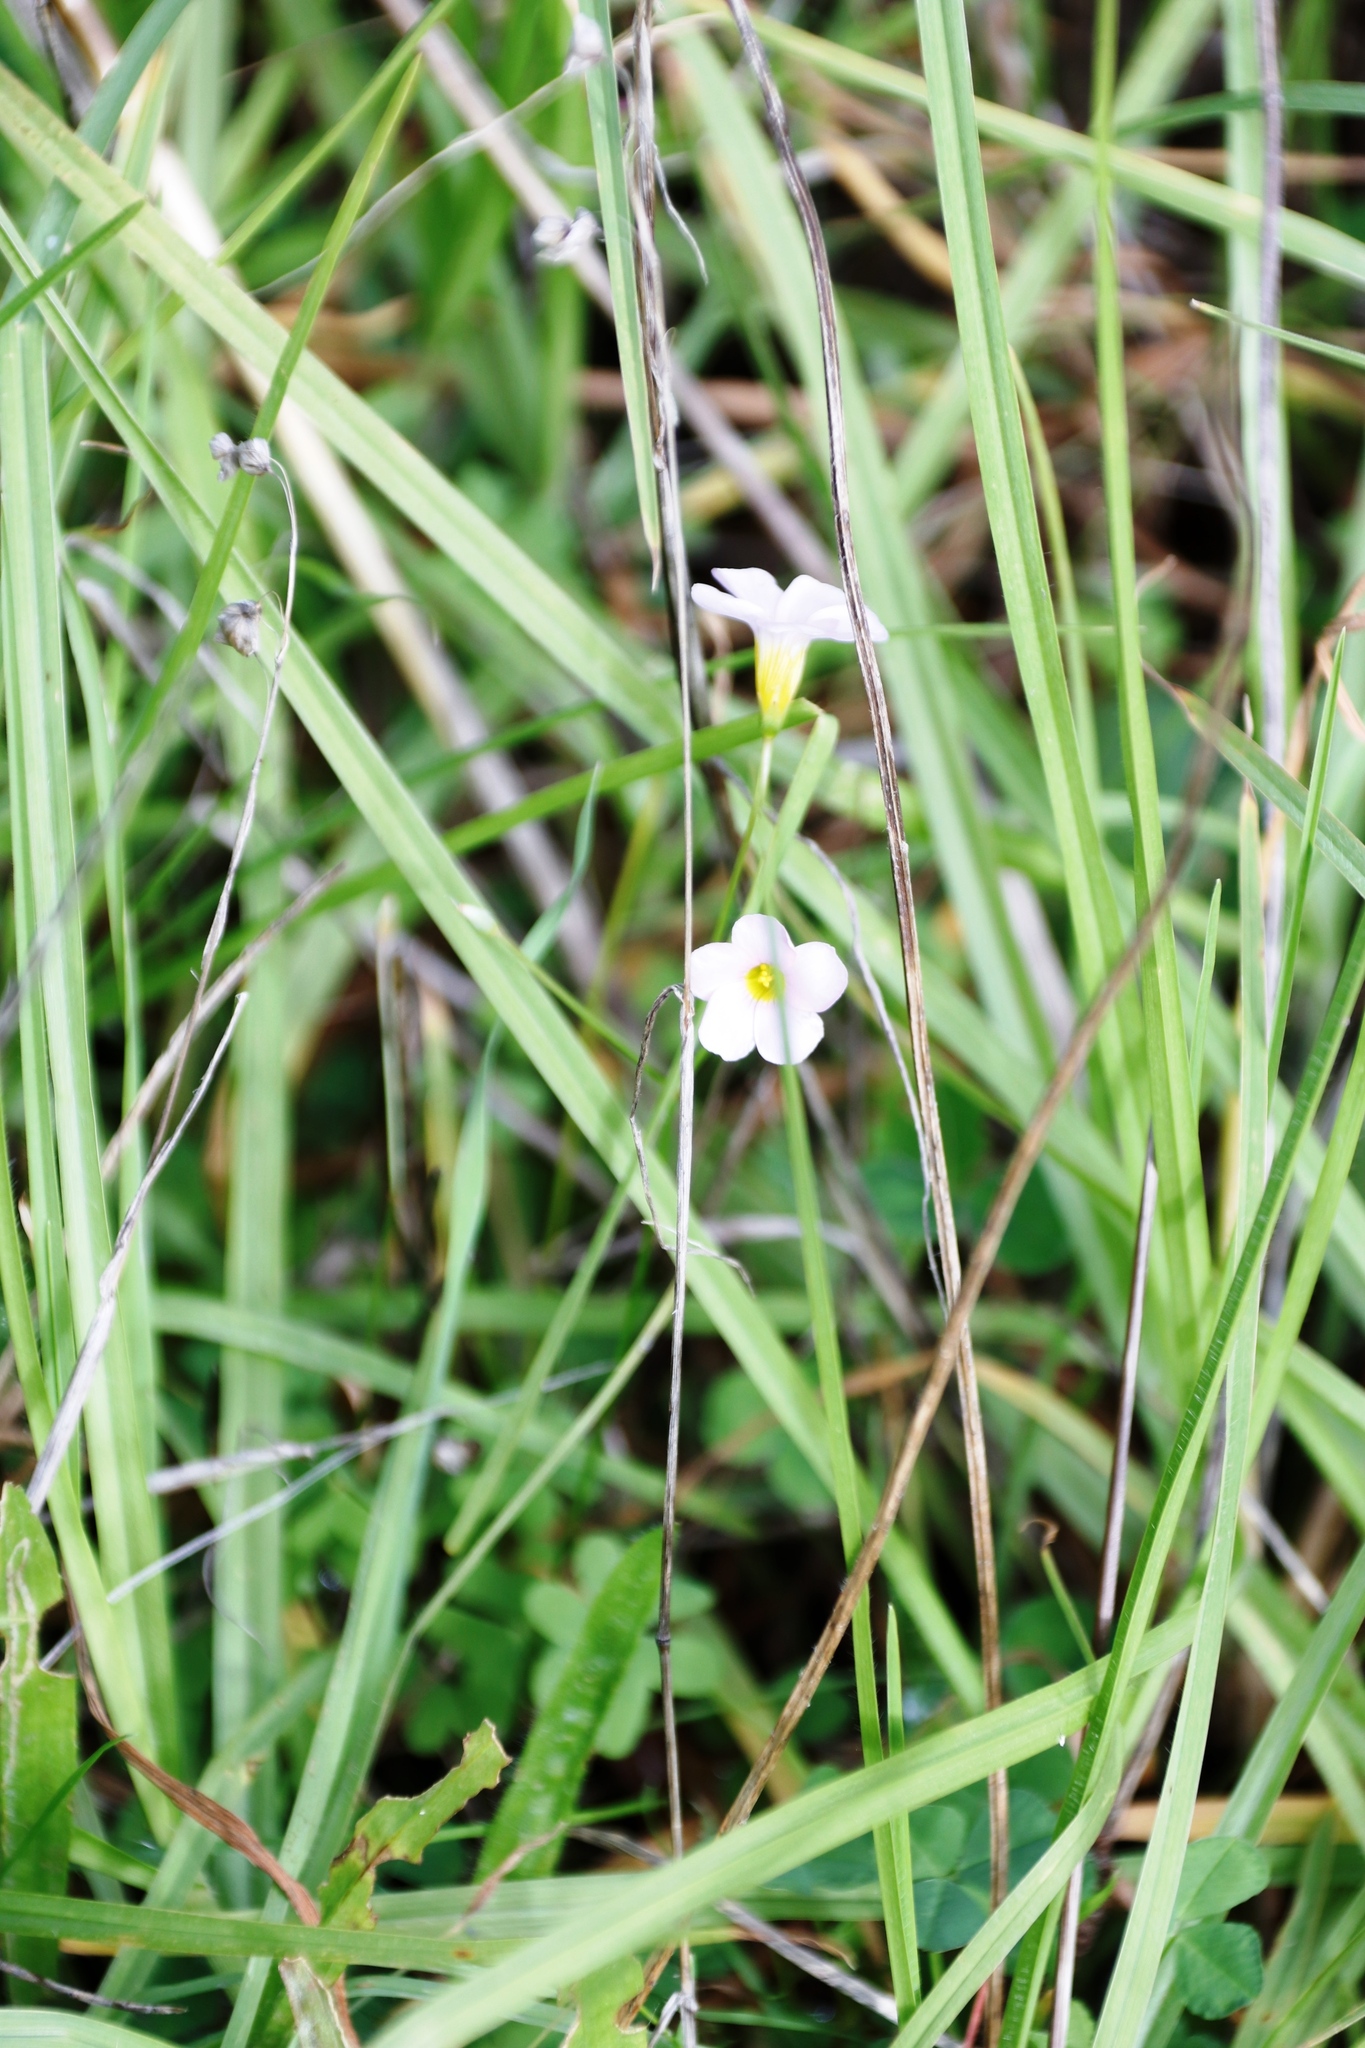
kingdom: Plantae
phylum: Tracheophyta
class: Magnoliopsida
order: Oxalidales
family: Oxalidaceae
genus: Oxalis
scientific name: Oxalis caprina
